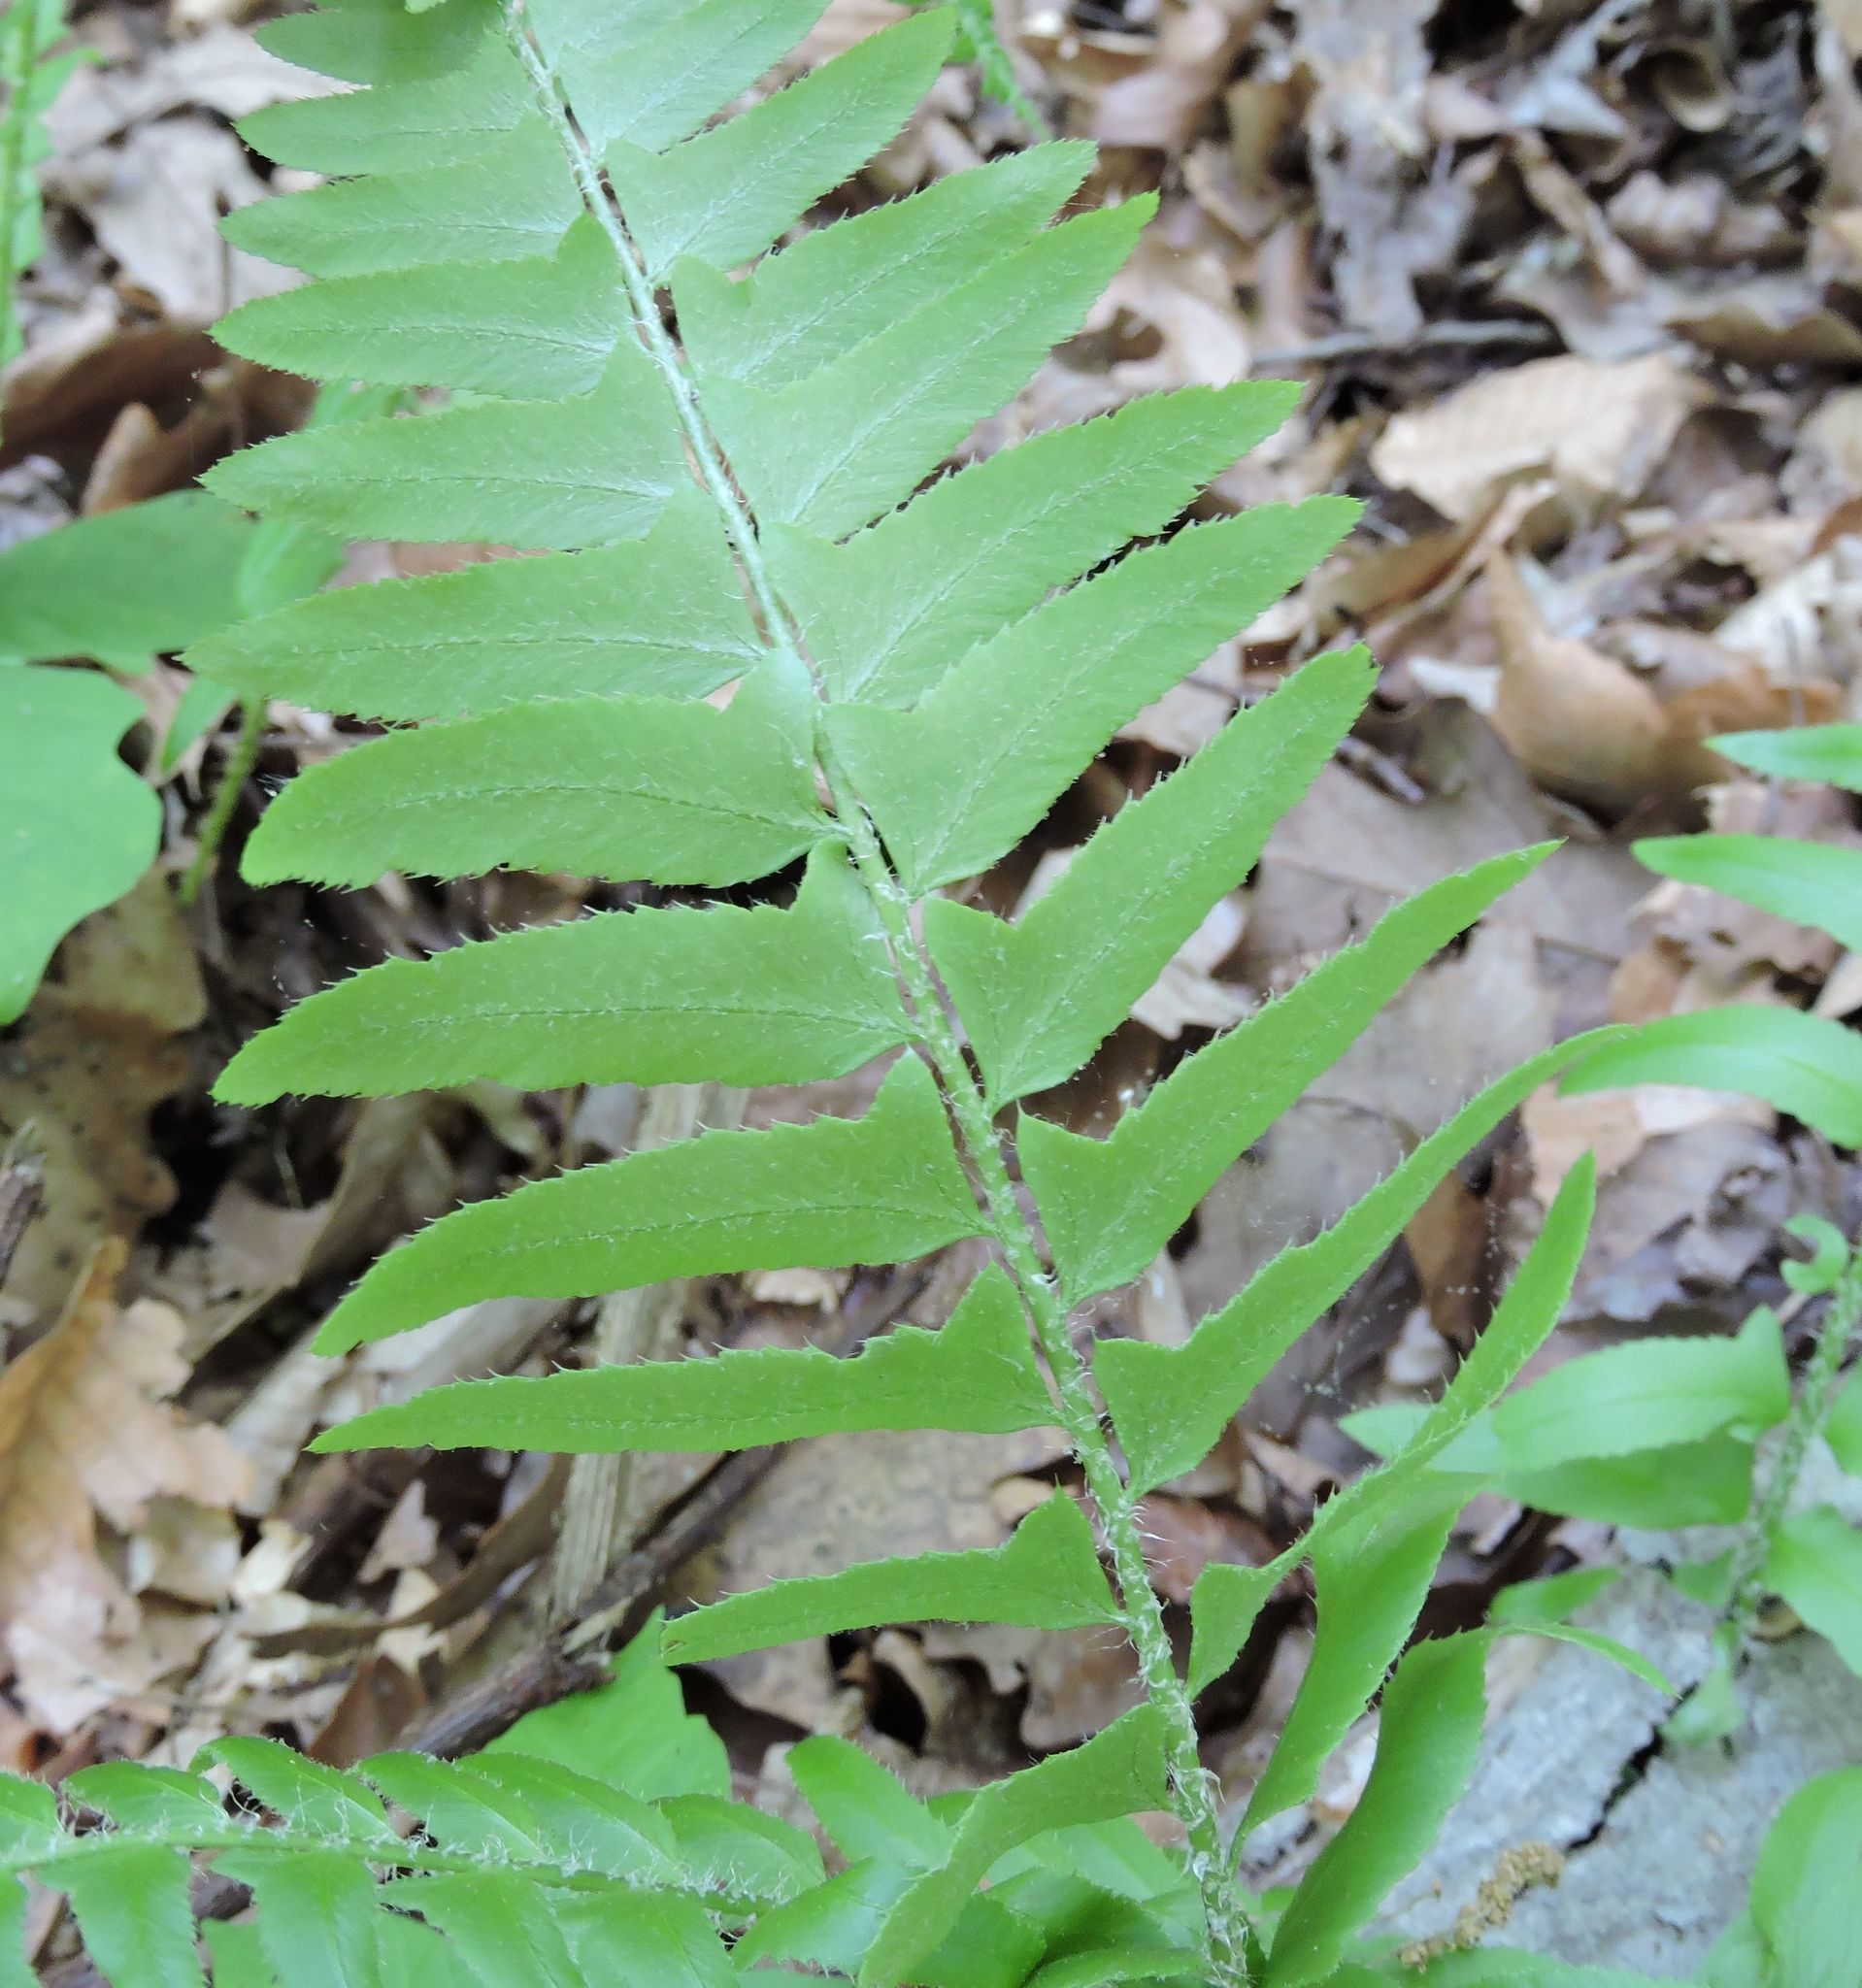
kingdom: Plantae
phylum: Tracheophyta
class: Polypodiopsida
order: Polypodiales
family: Dryopteridaceae
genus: Polystichum
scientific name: Polystichum acrostichoides
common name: Christmas fern
